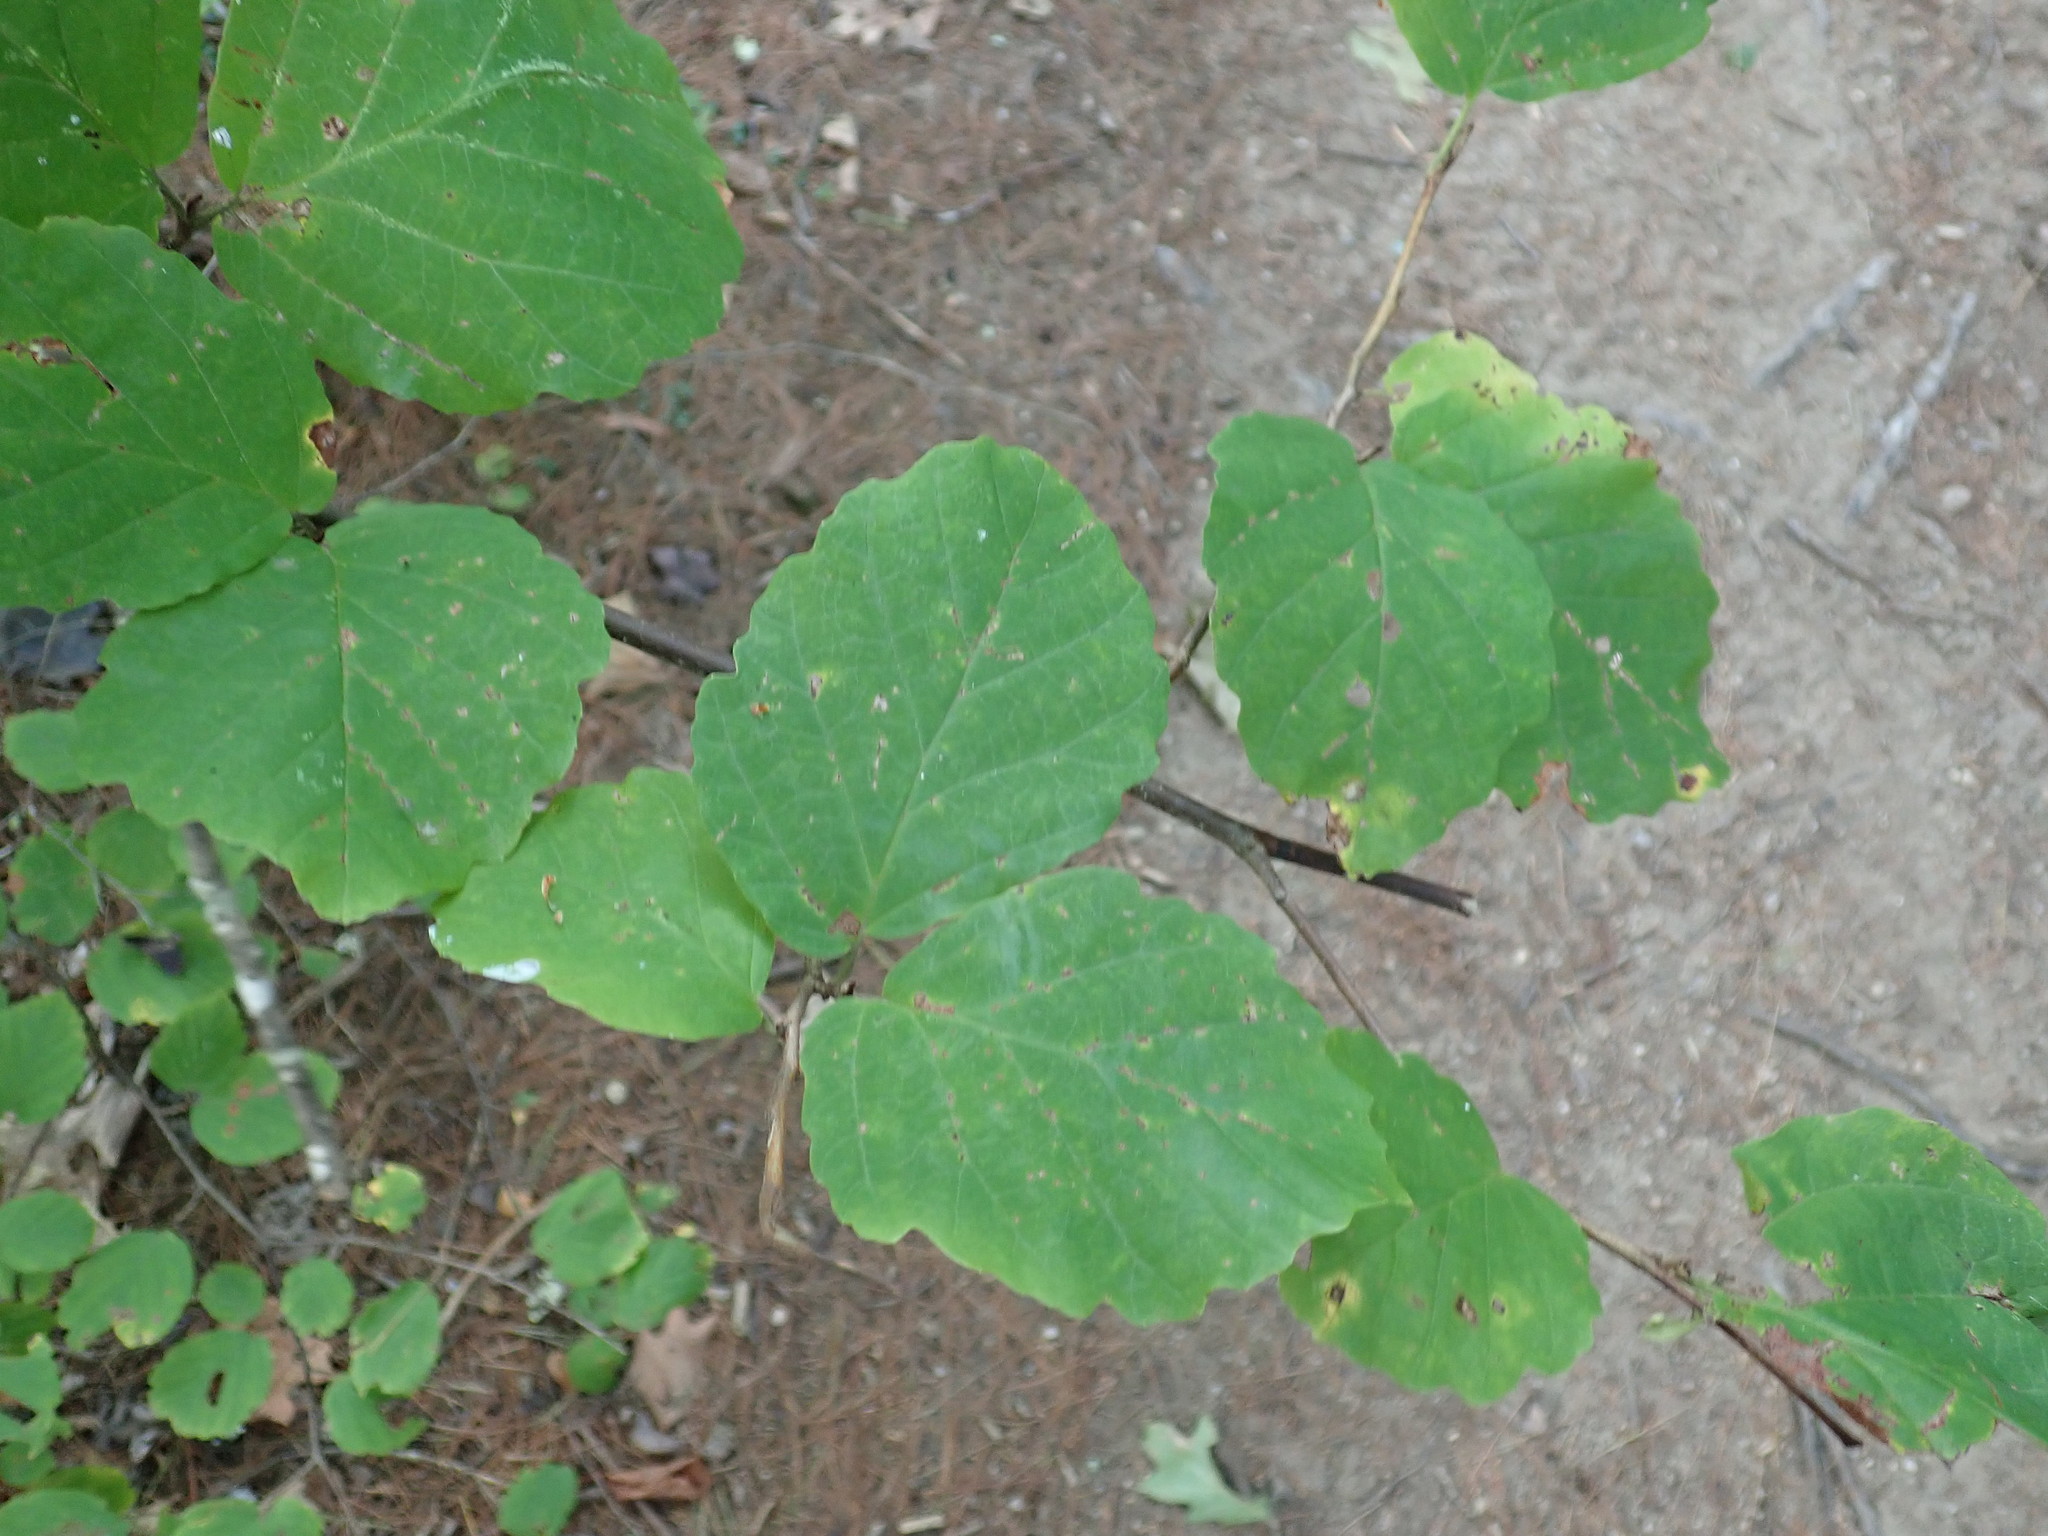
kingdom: Plantae
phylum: Tracheophyta
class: Magnoliopsida
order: Saxifragales
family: Hamamelidaceae
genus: Hamamelis
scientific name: Hamamelis virginiana
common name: Witch-hazel
